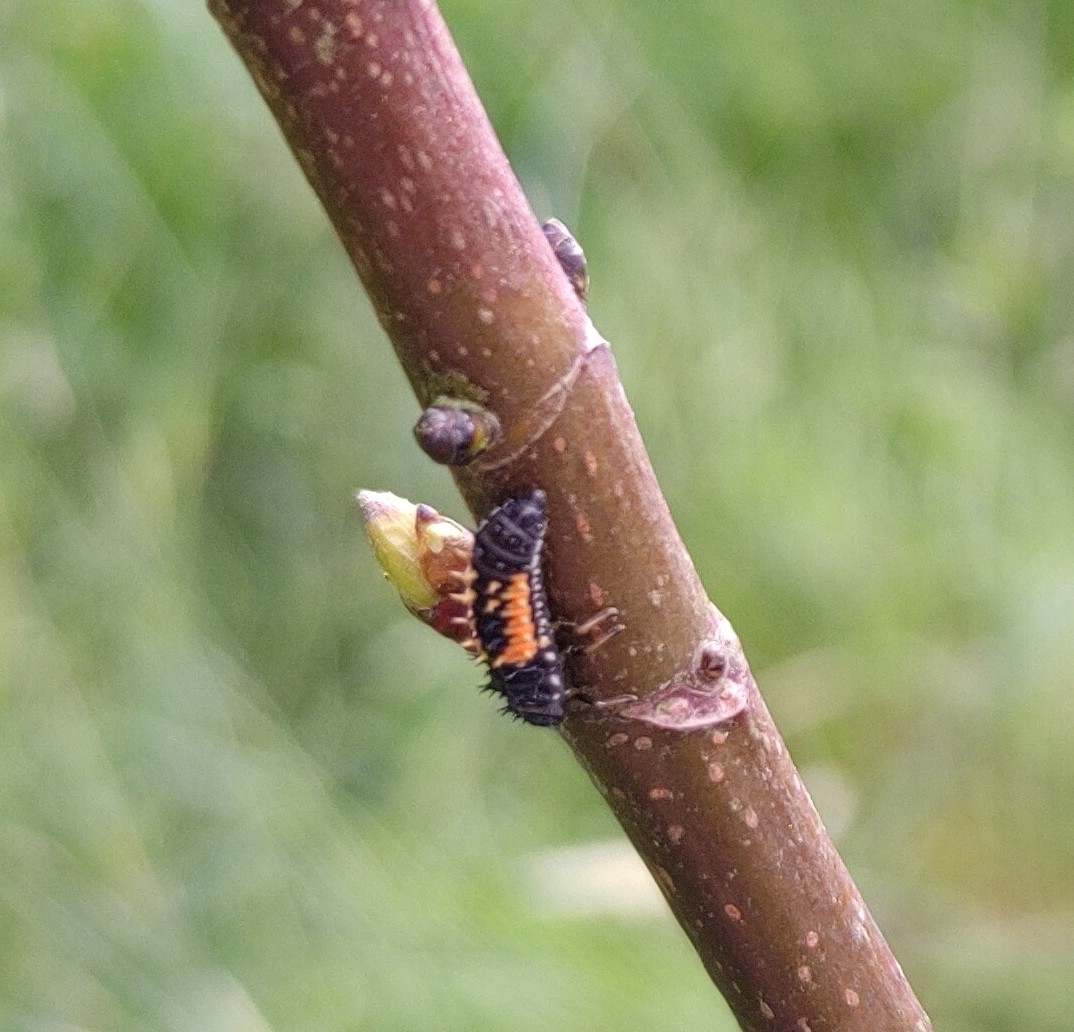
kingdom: Animalia
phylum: Arthropoda
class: Insecta
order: Coleoptera
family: Coccinellidae
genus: Harmonia
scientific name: Harmonia axyridis
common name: Harlequin ladybird
